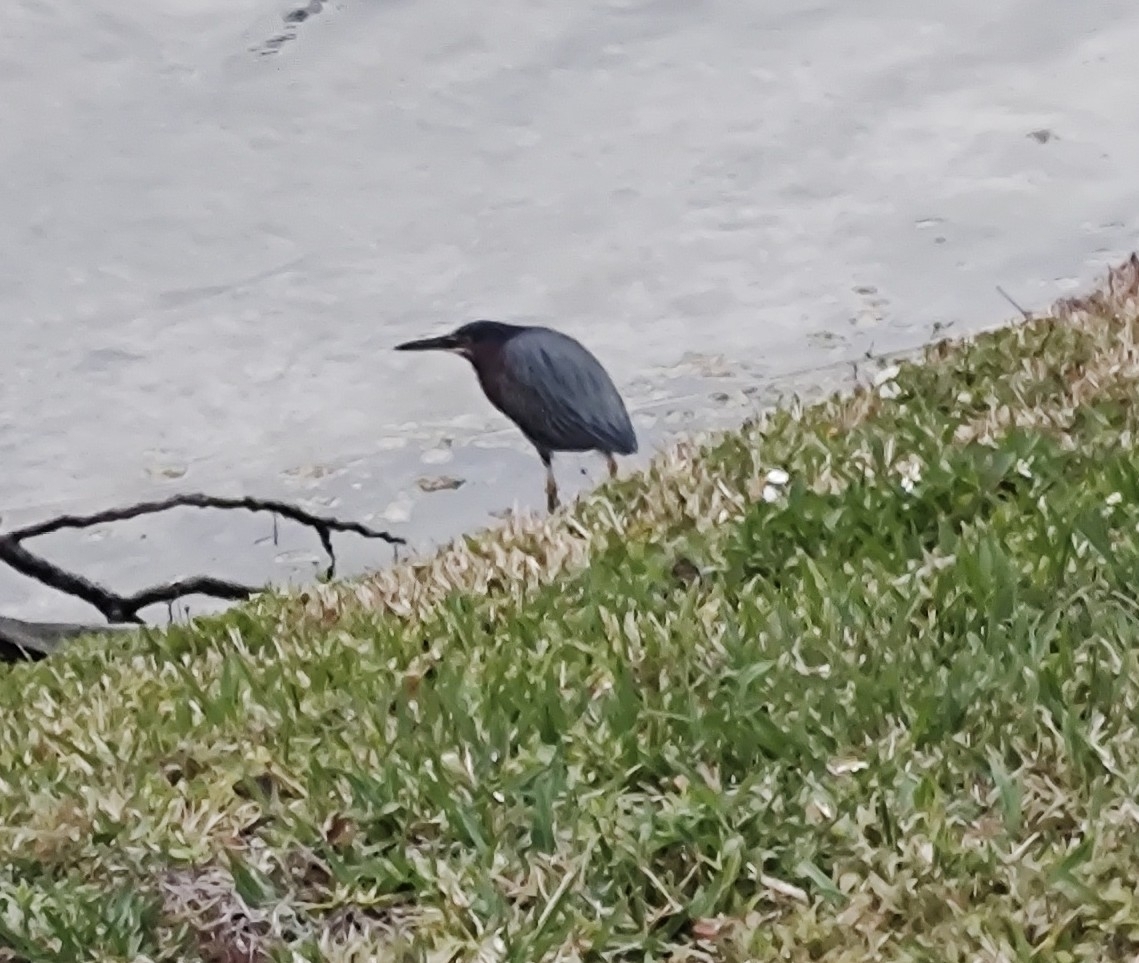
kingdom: Animalia
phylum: Chordata
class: Aves
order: Pelecaniformes
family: Ardeidae
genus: Butorides
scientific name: Butorides virescens
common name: Green heron
